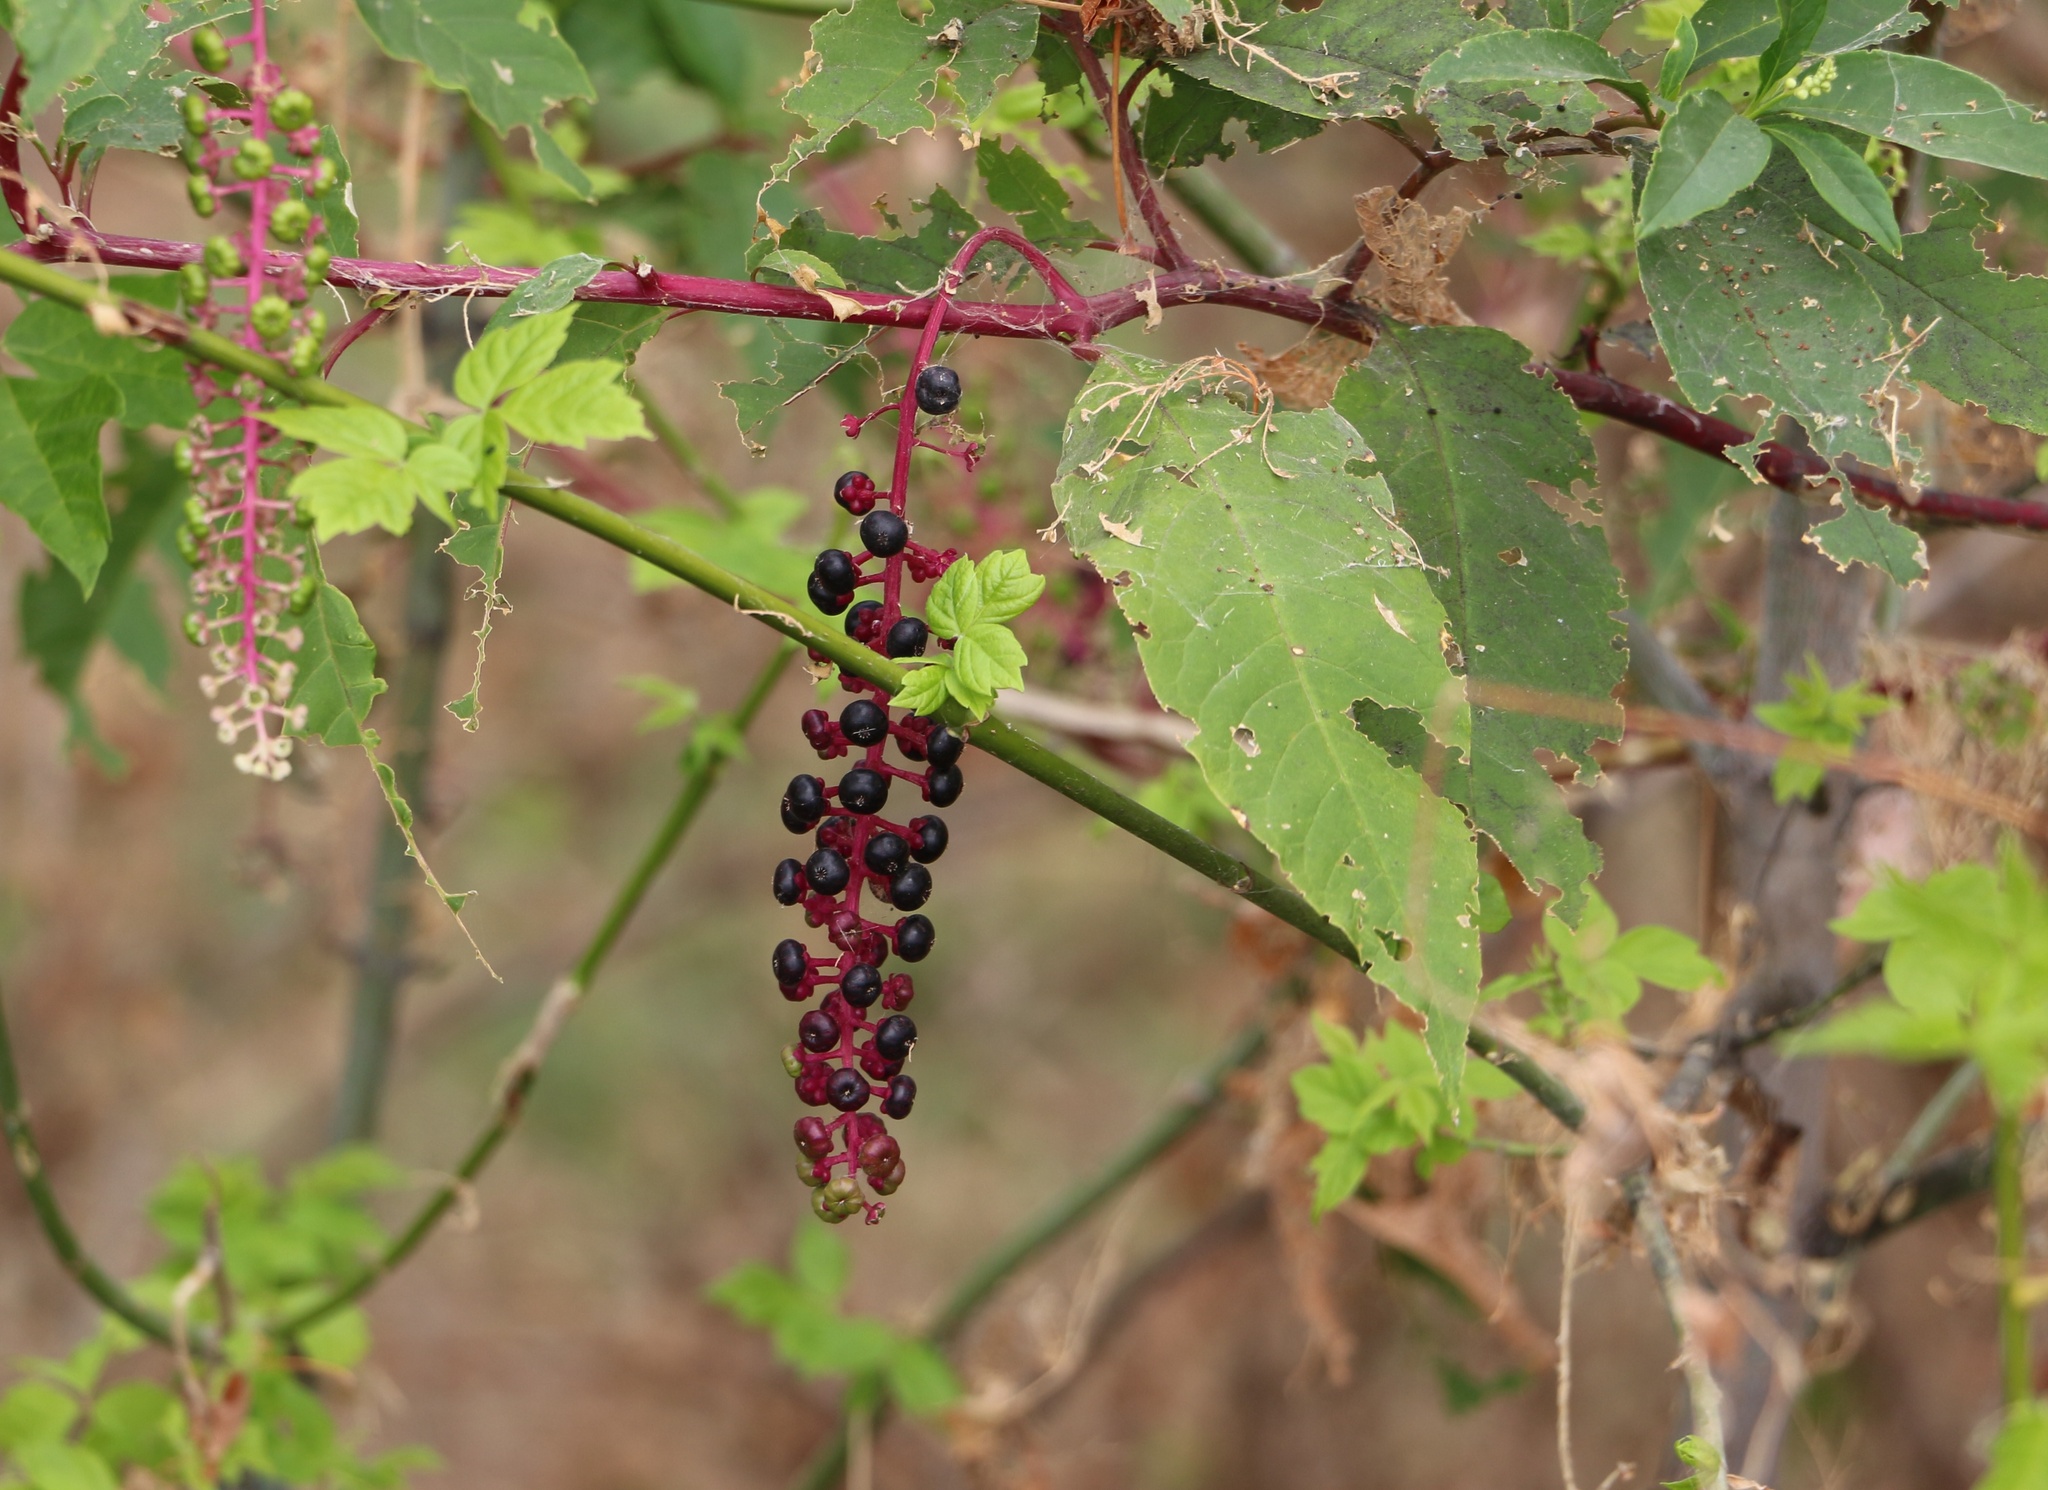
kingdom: Plantae
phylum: Tracheophyta
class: Magnoliopsida
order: Caryophyllales
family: Phytolaccaceae
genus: Phytolacca
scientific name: Phytolacca americana
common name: American pokeweed
